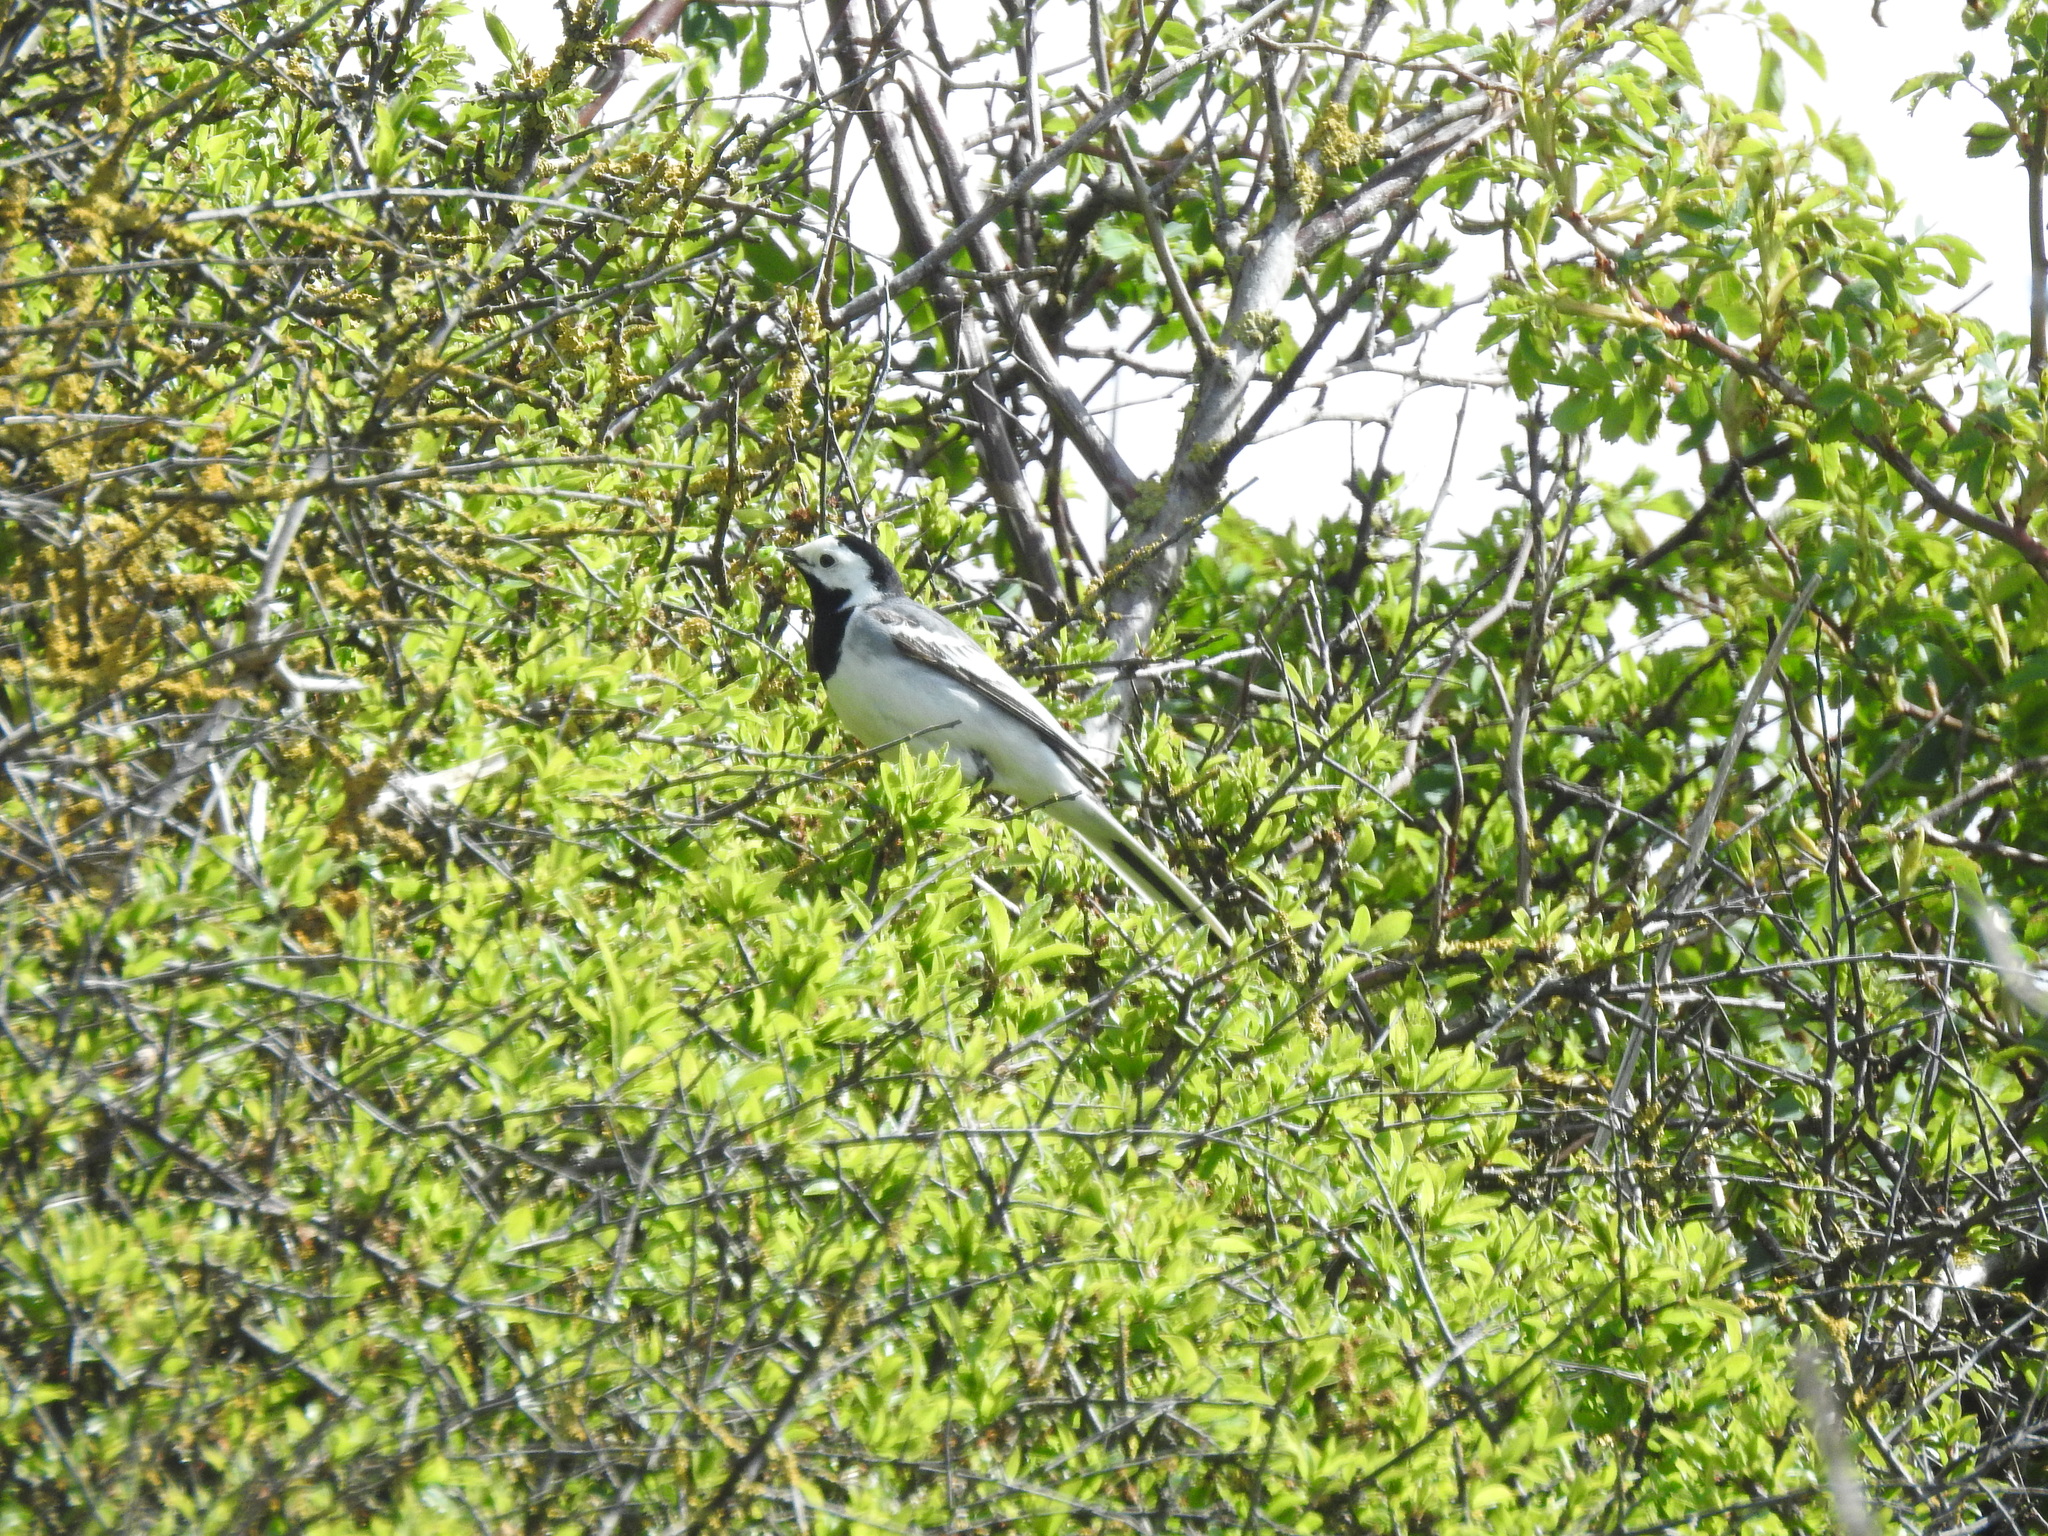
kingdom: Animalia
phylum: Chordata
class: Aves
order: Passeriformes
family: Motacillidae
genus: Motacilla
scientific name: Motacilla alba
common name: White wagtail
